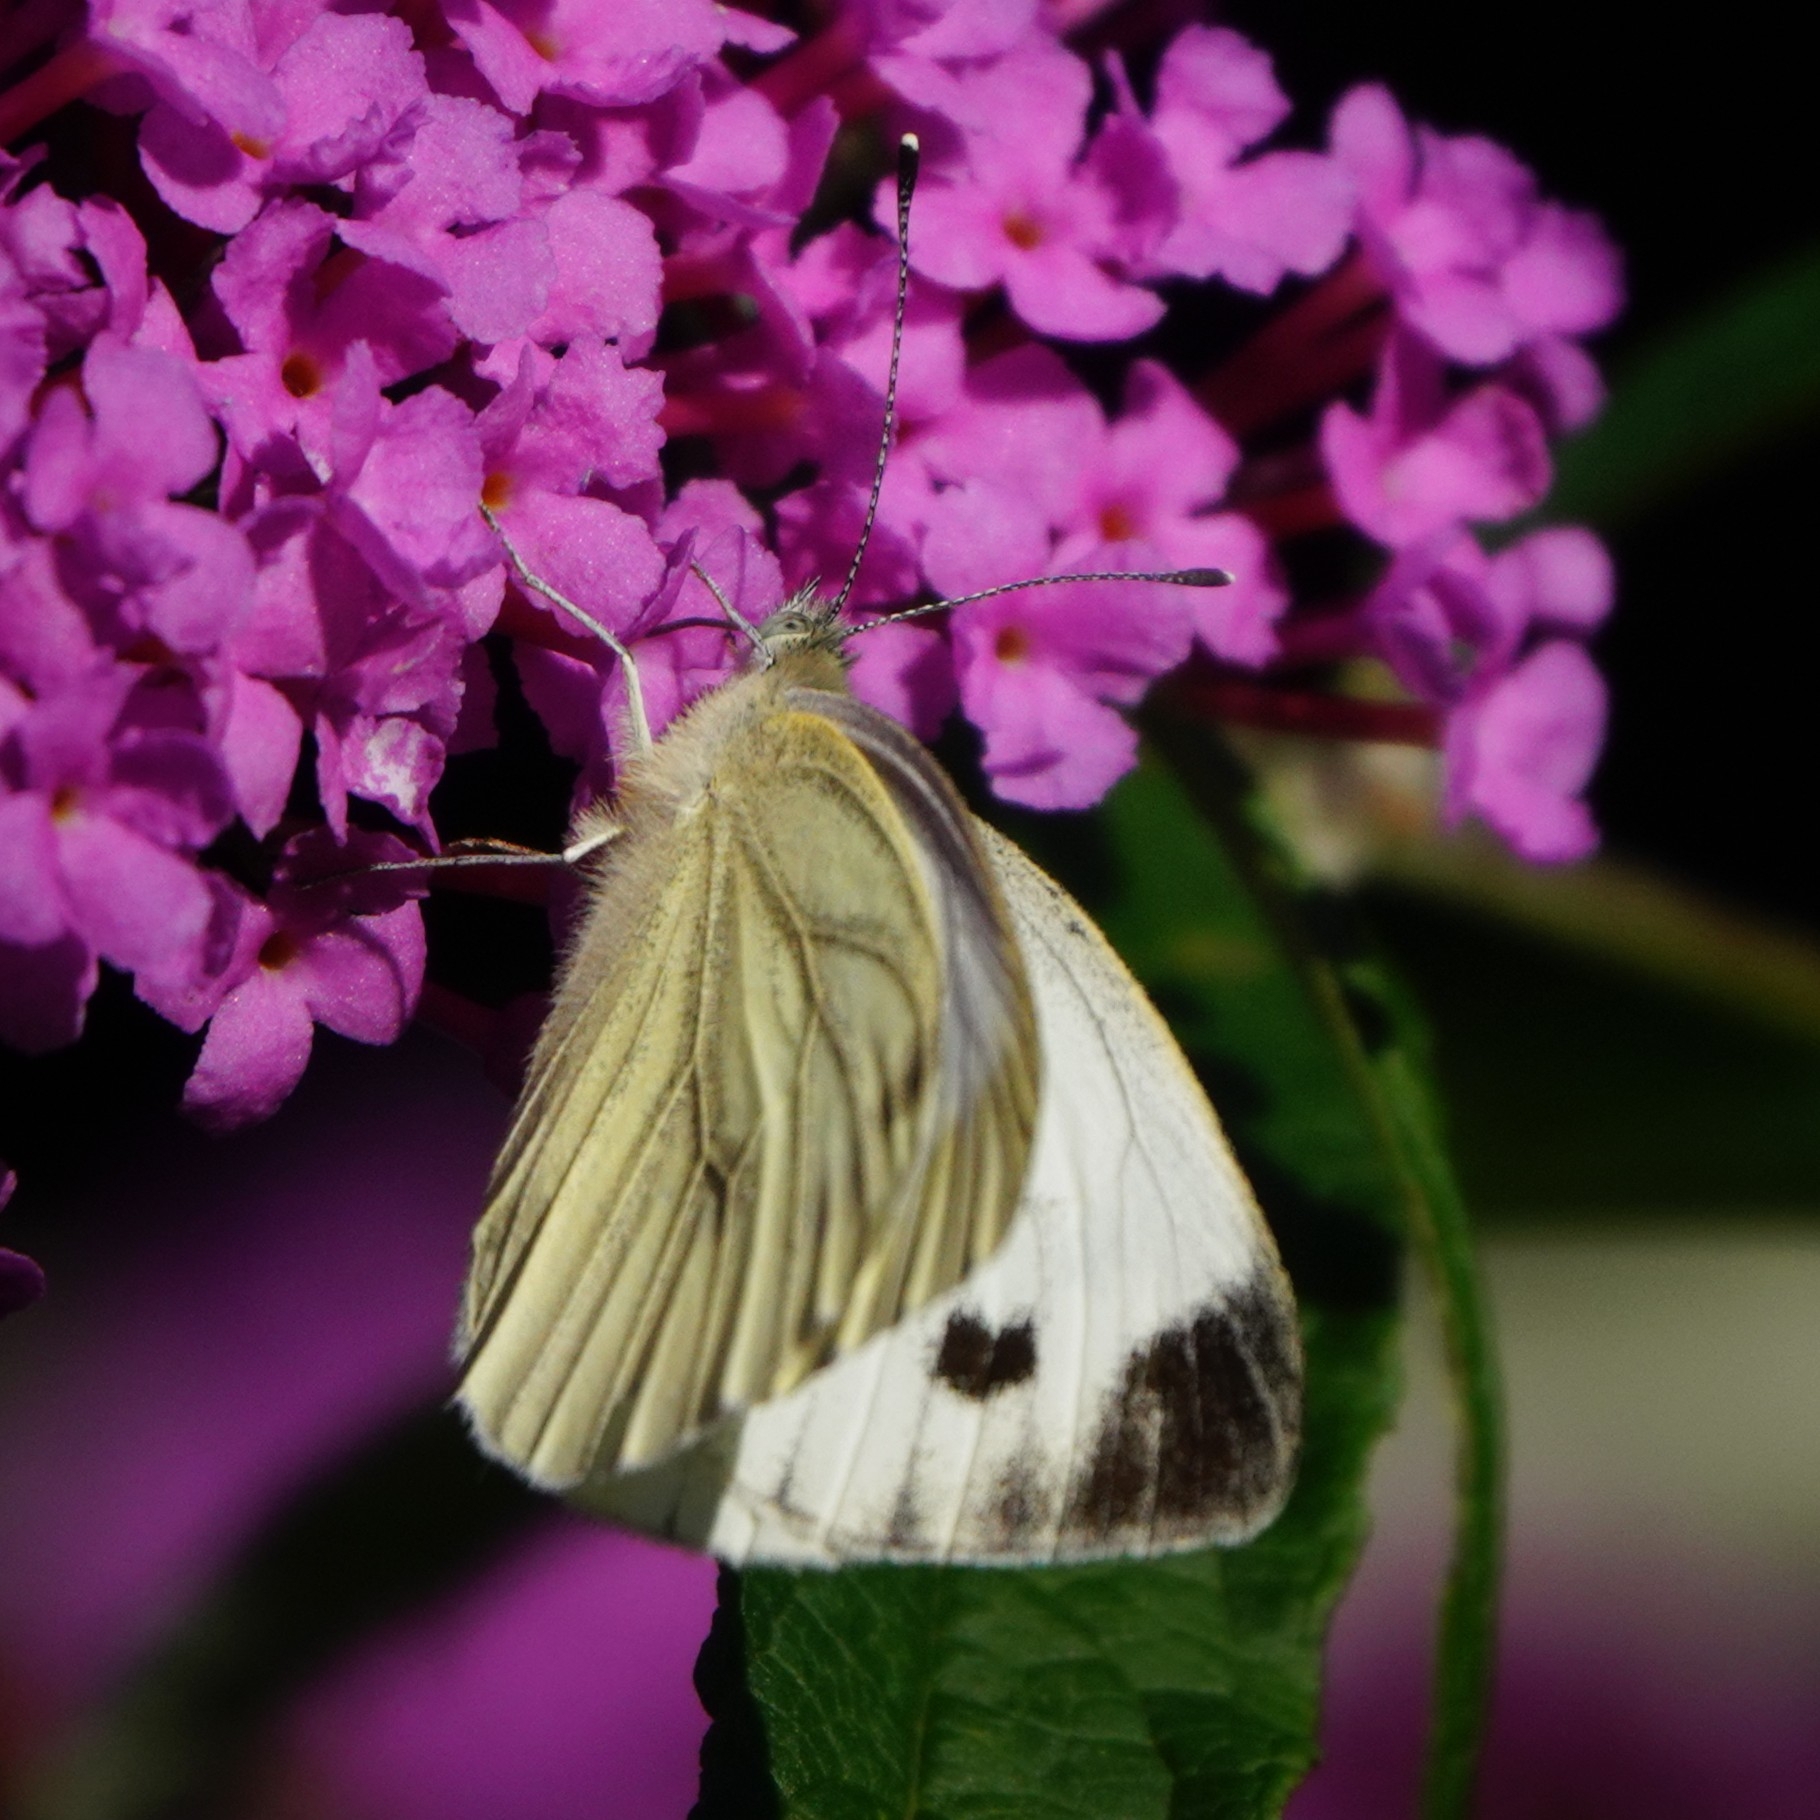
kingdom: Animalia
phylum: Arthropoda
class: Insecta
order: Lepidoptera
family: Pieridae
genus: Pieris
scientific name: Pieris napi
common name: Green-veined white
